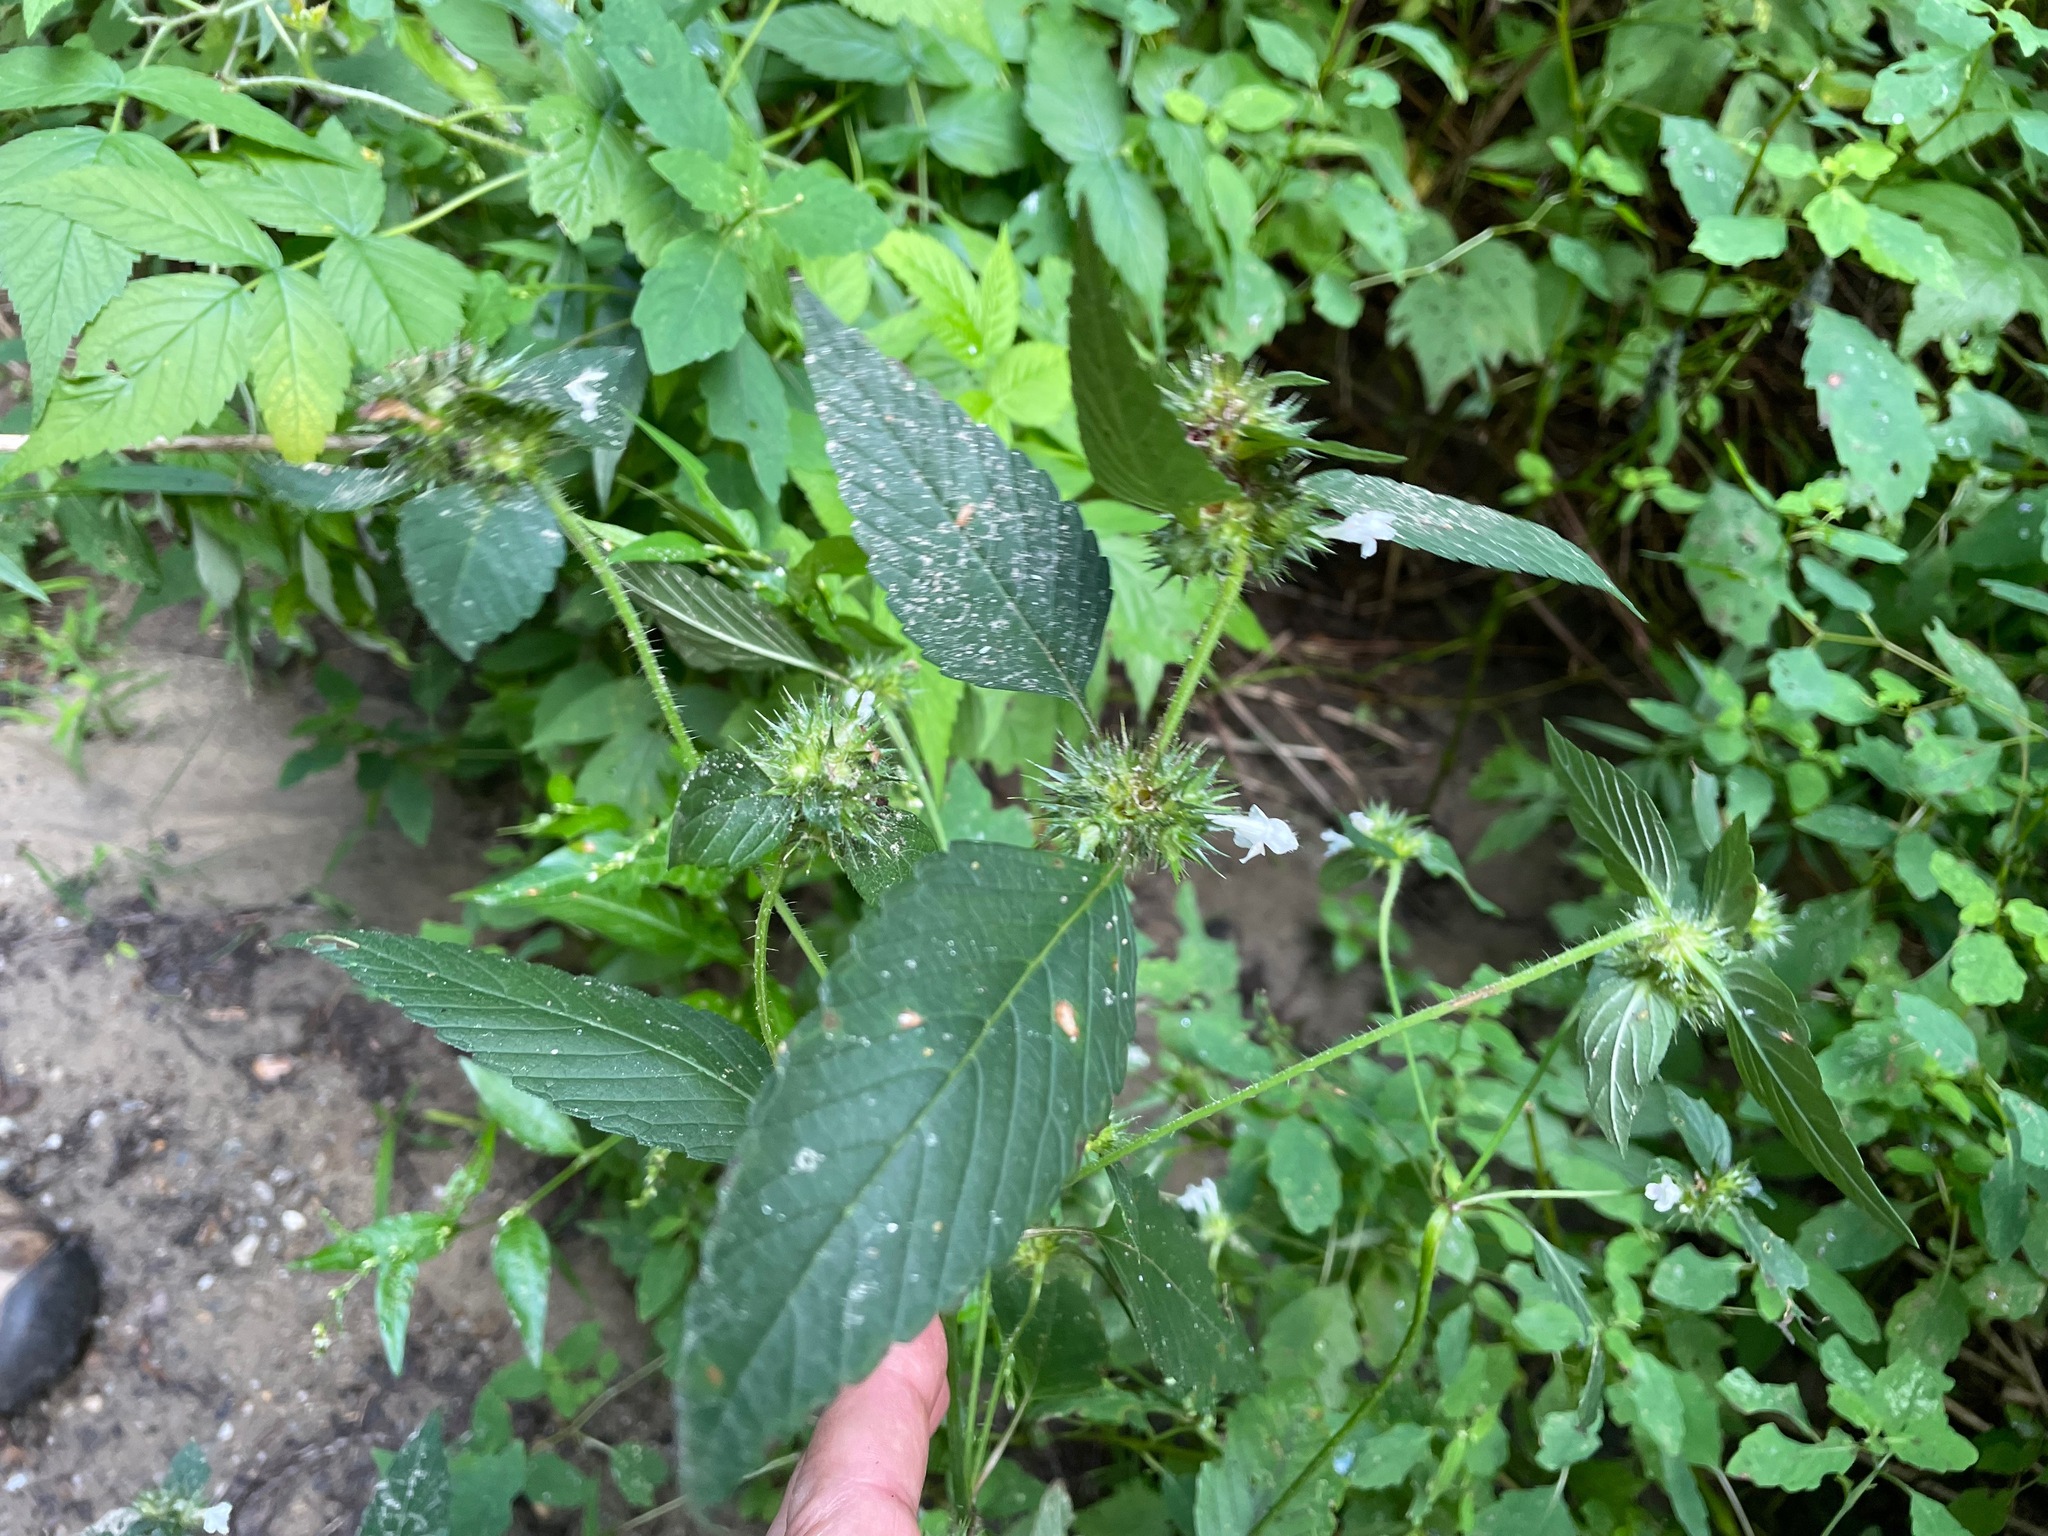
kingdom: Plantae
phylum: Tracheophyta
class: Magnoliopsida
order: Lamiales
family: Lamiaceae
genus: Galeopsis
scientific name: Galeopsis bifida
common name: Bifid hemp-nettle
